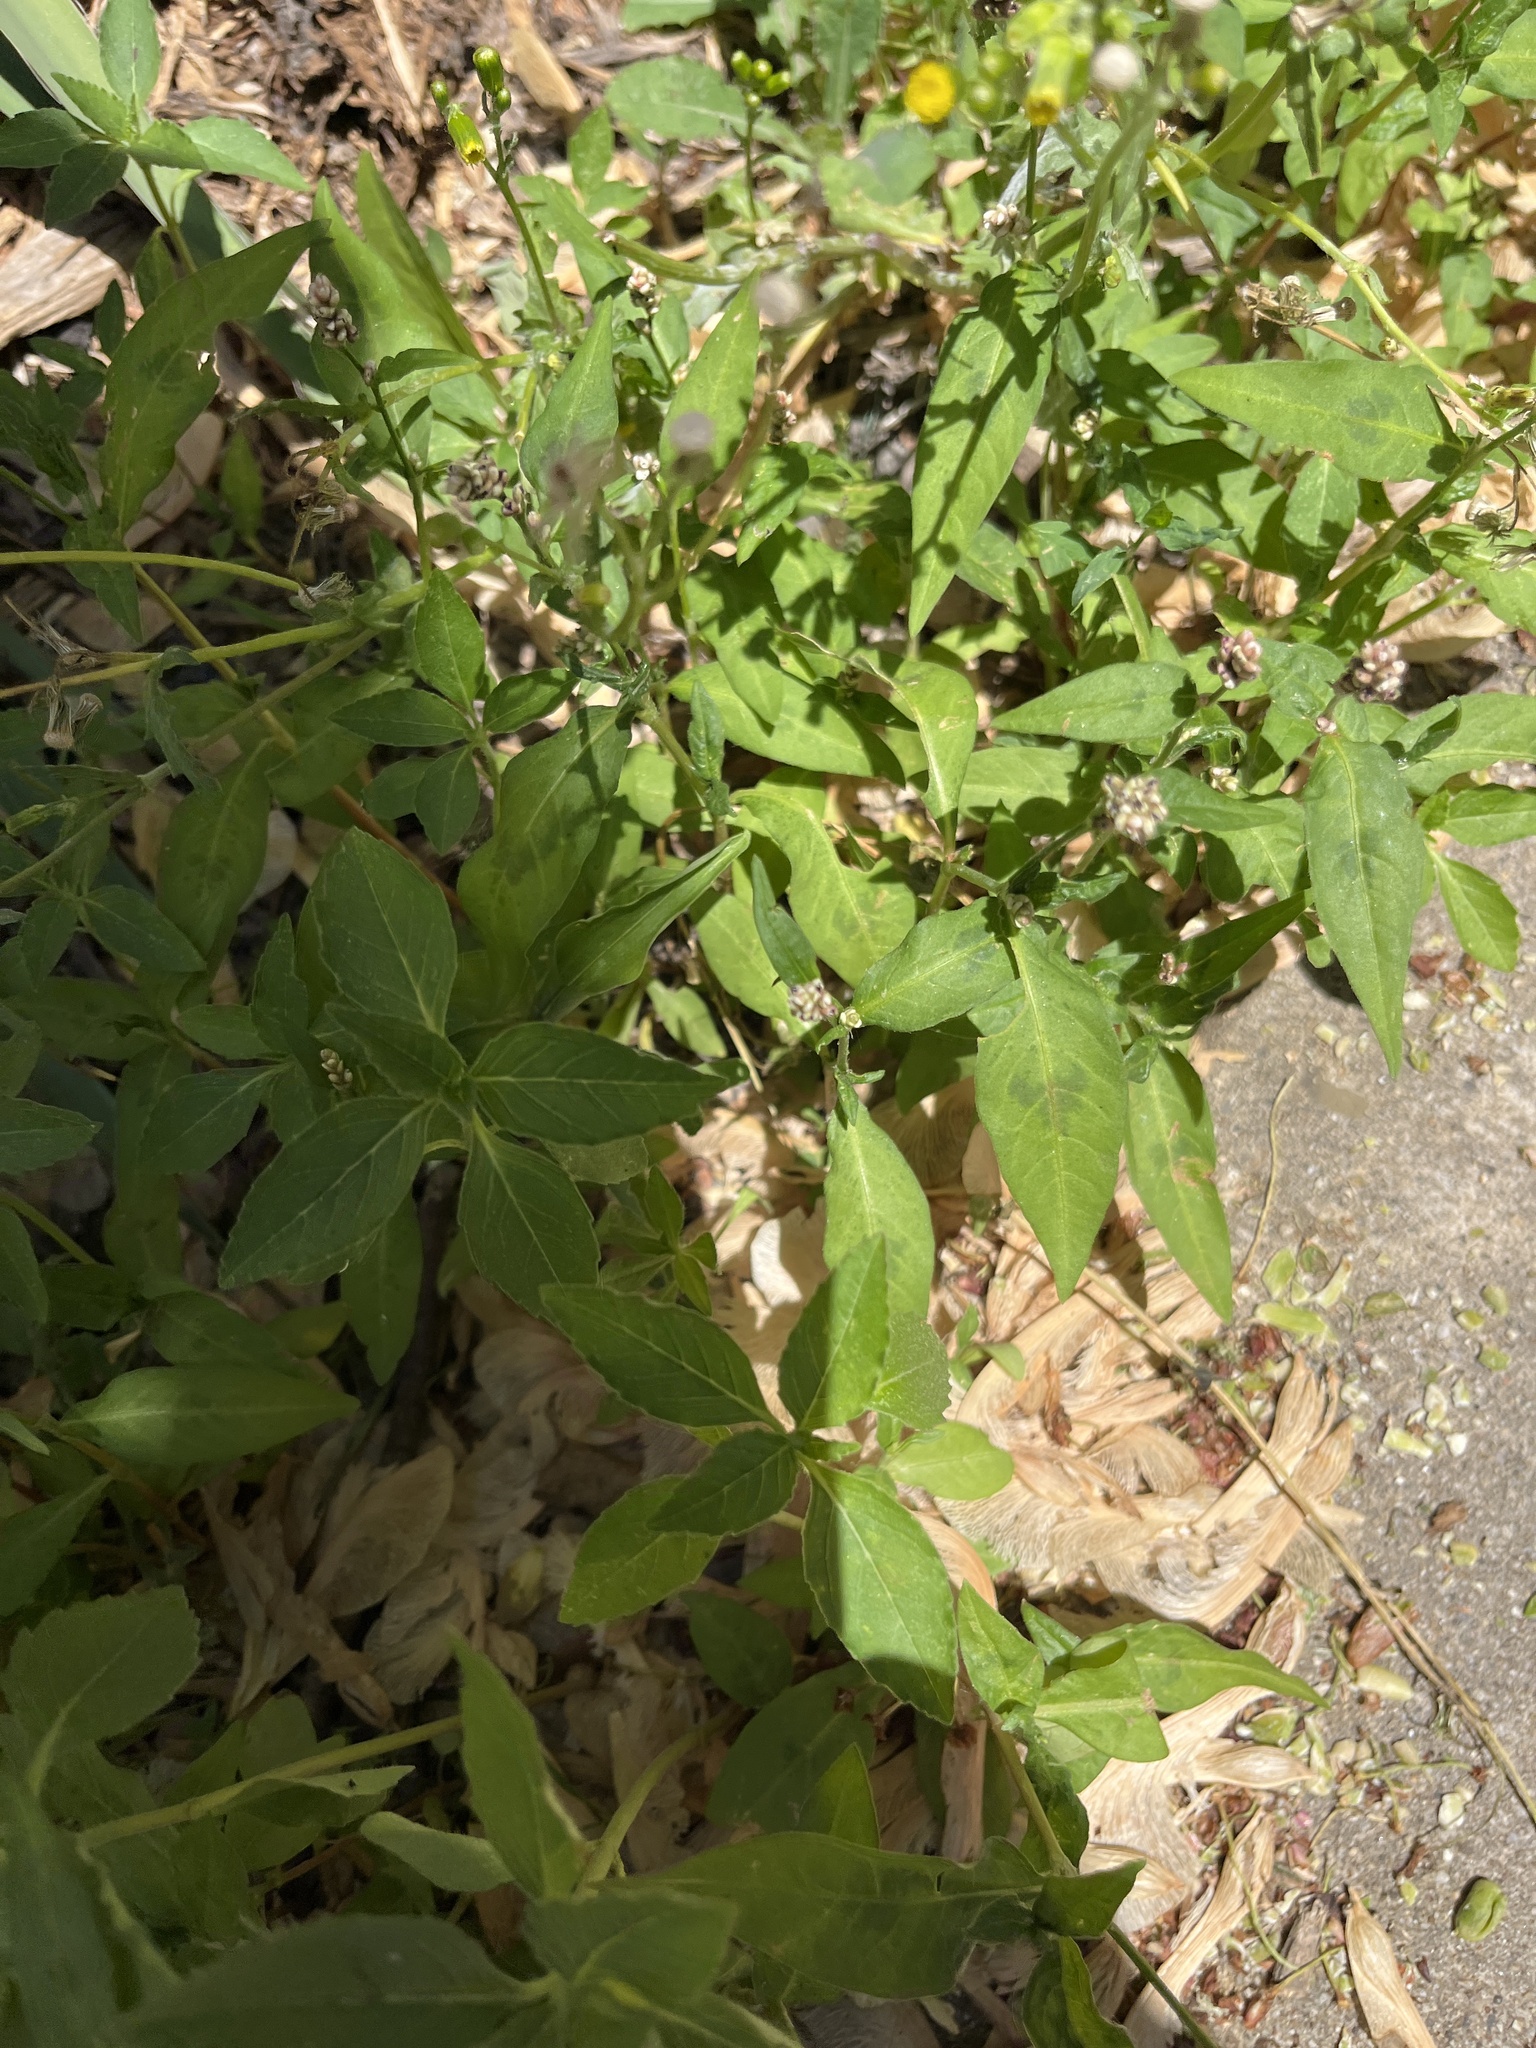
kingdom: Plantae
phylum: Tracheophyta
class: Magnoliopsida
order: Caryophyllales
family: Polygonaceae
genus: Persicaria
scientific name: Persicaria maculosa
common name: Redshank
